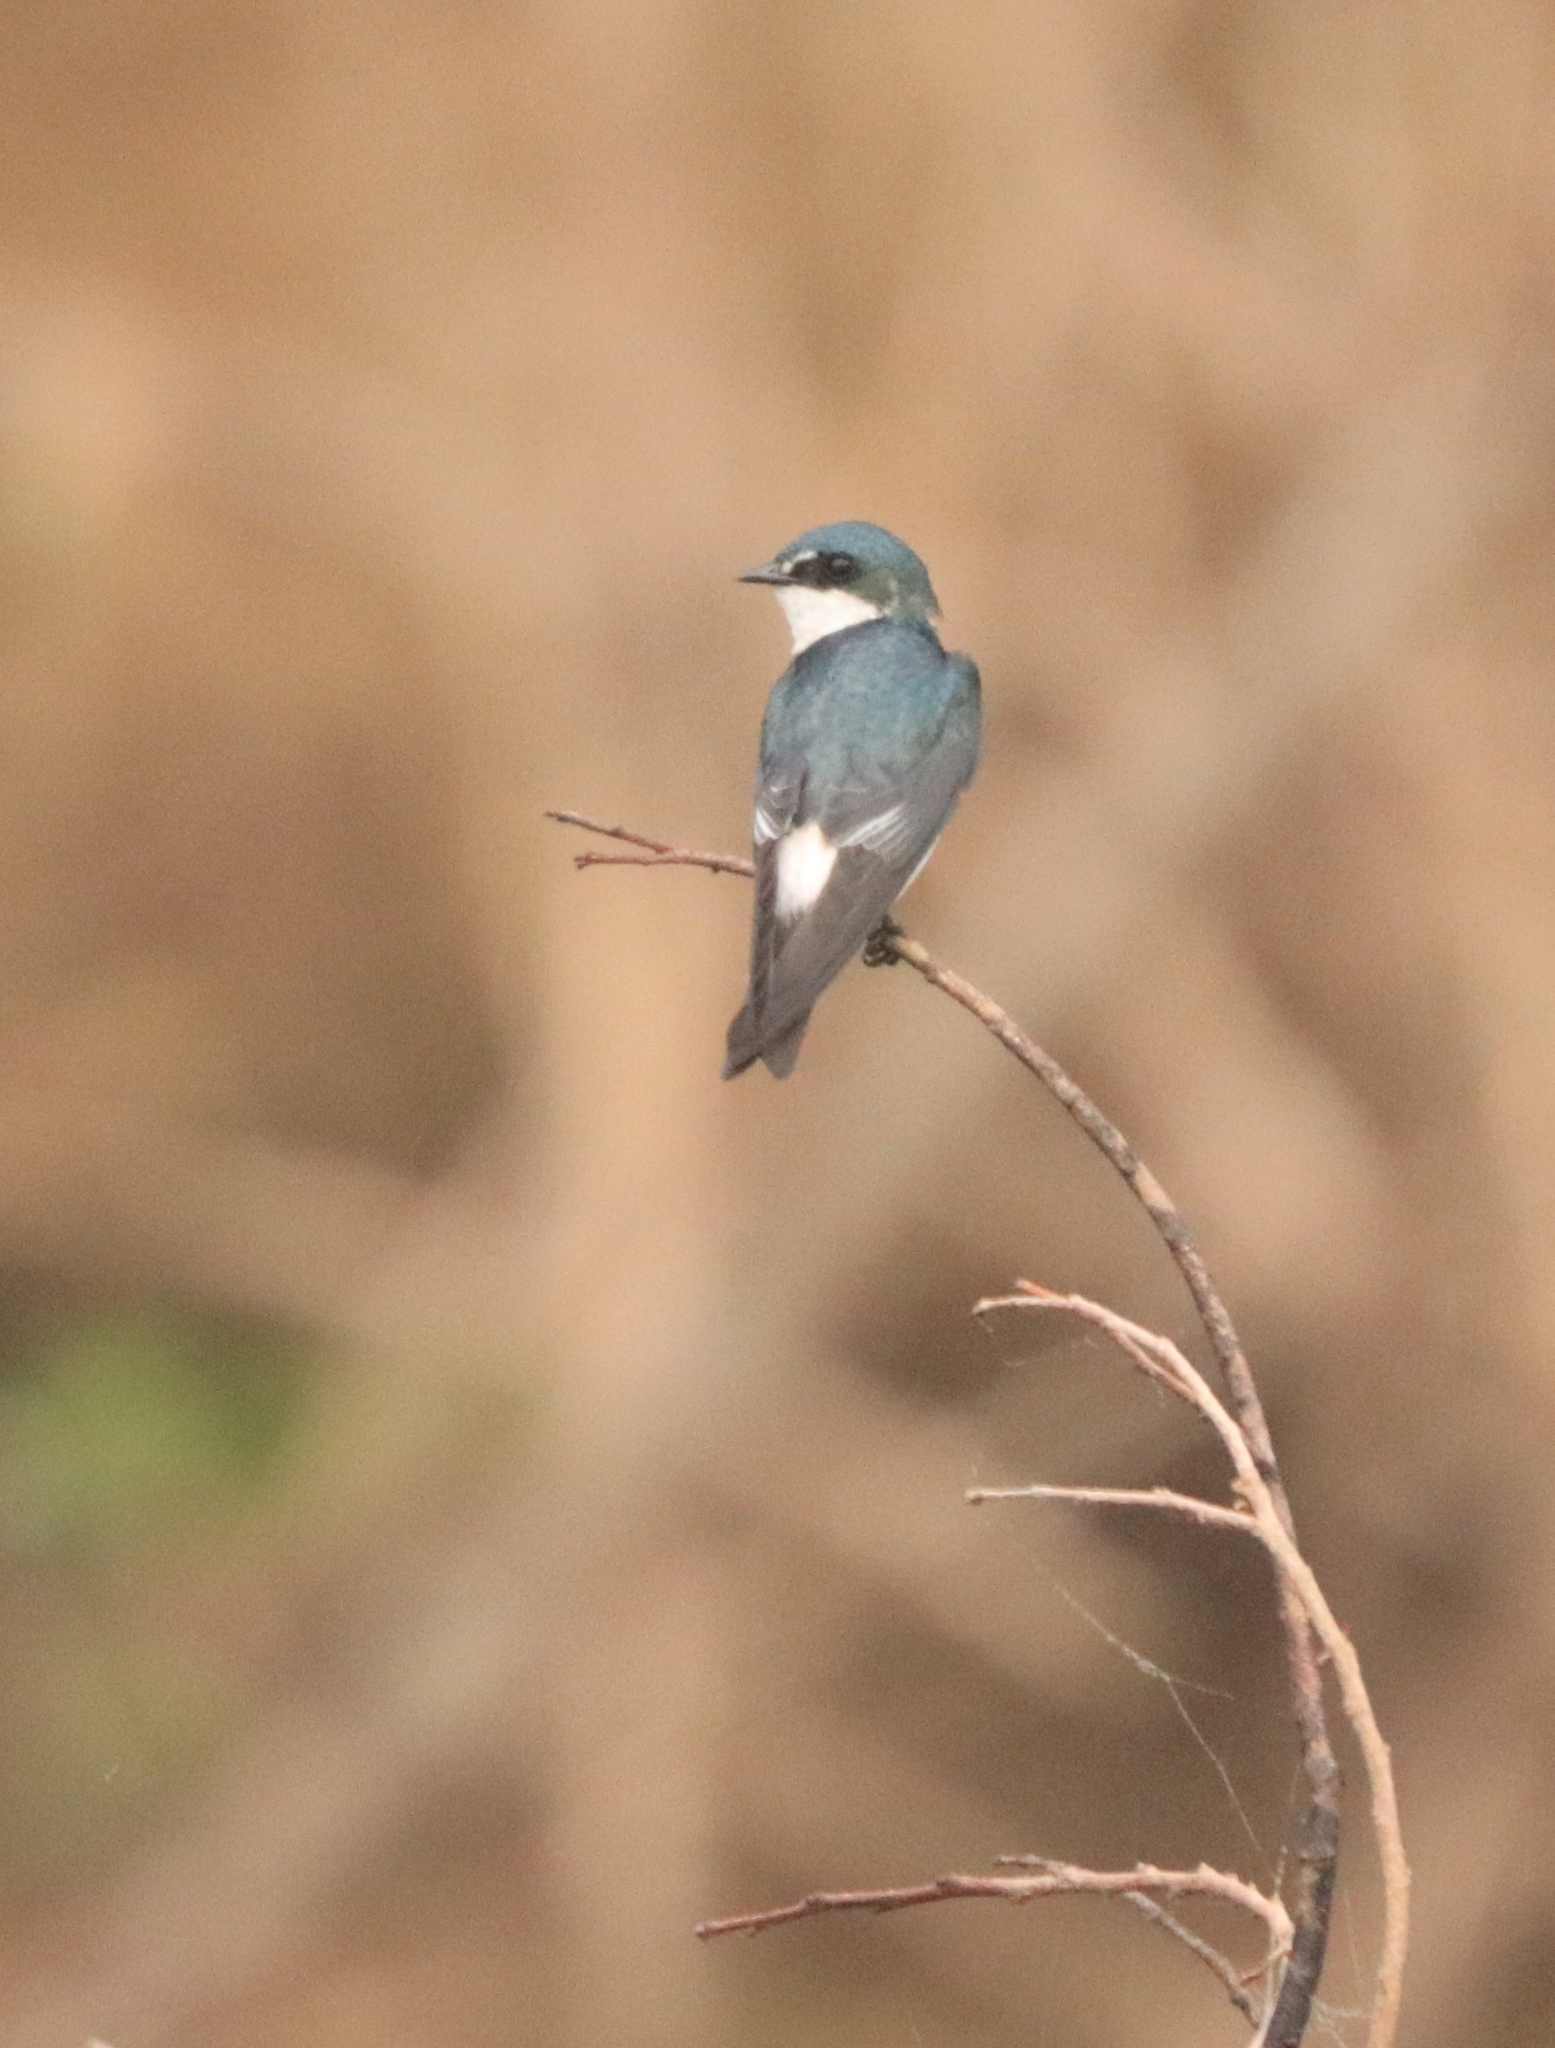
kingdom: Animalia
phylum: Chordata
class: Aves
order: Passeriformes
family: Hirundinidae
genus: Tachycineta
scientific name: Tachycineta albilinea
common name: Mangrove swallow
